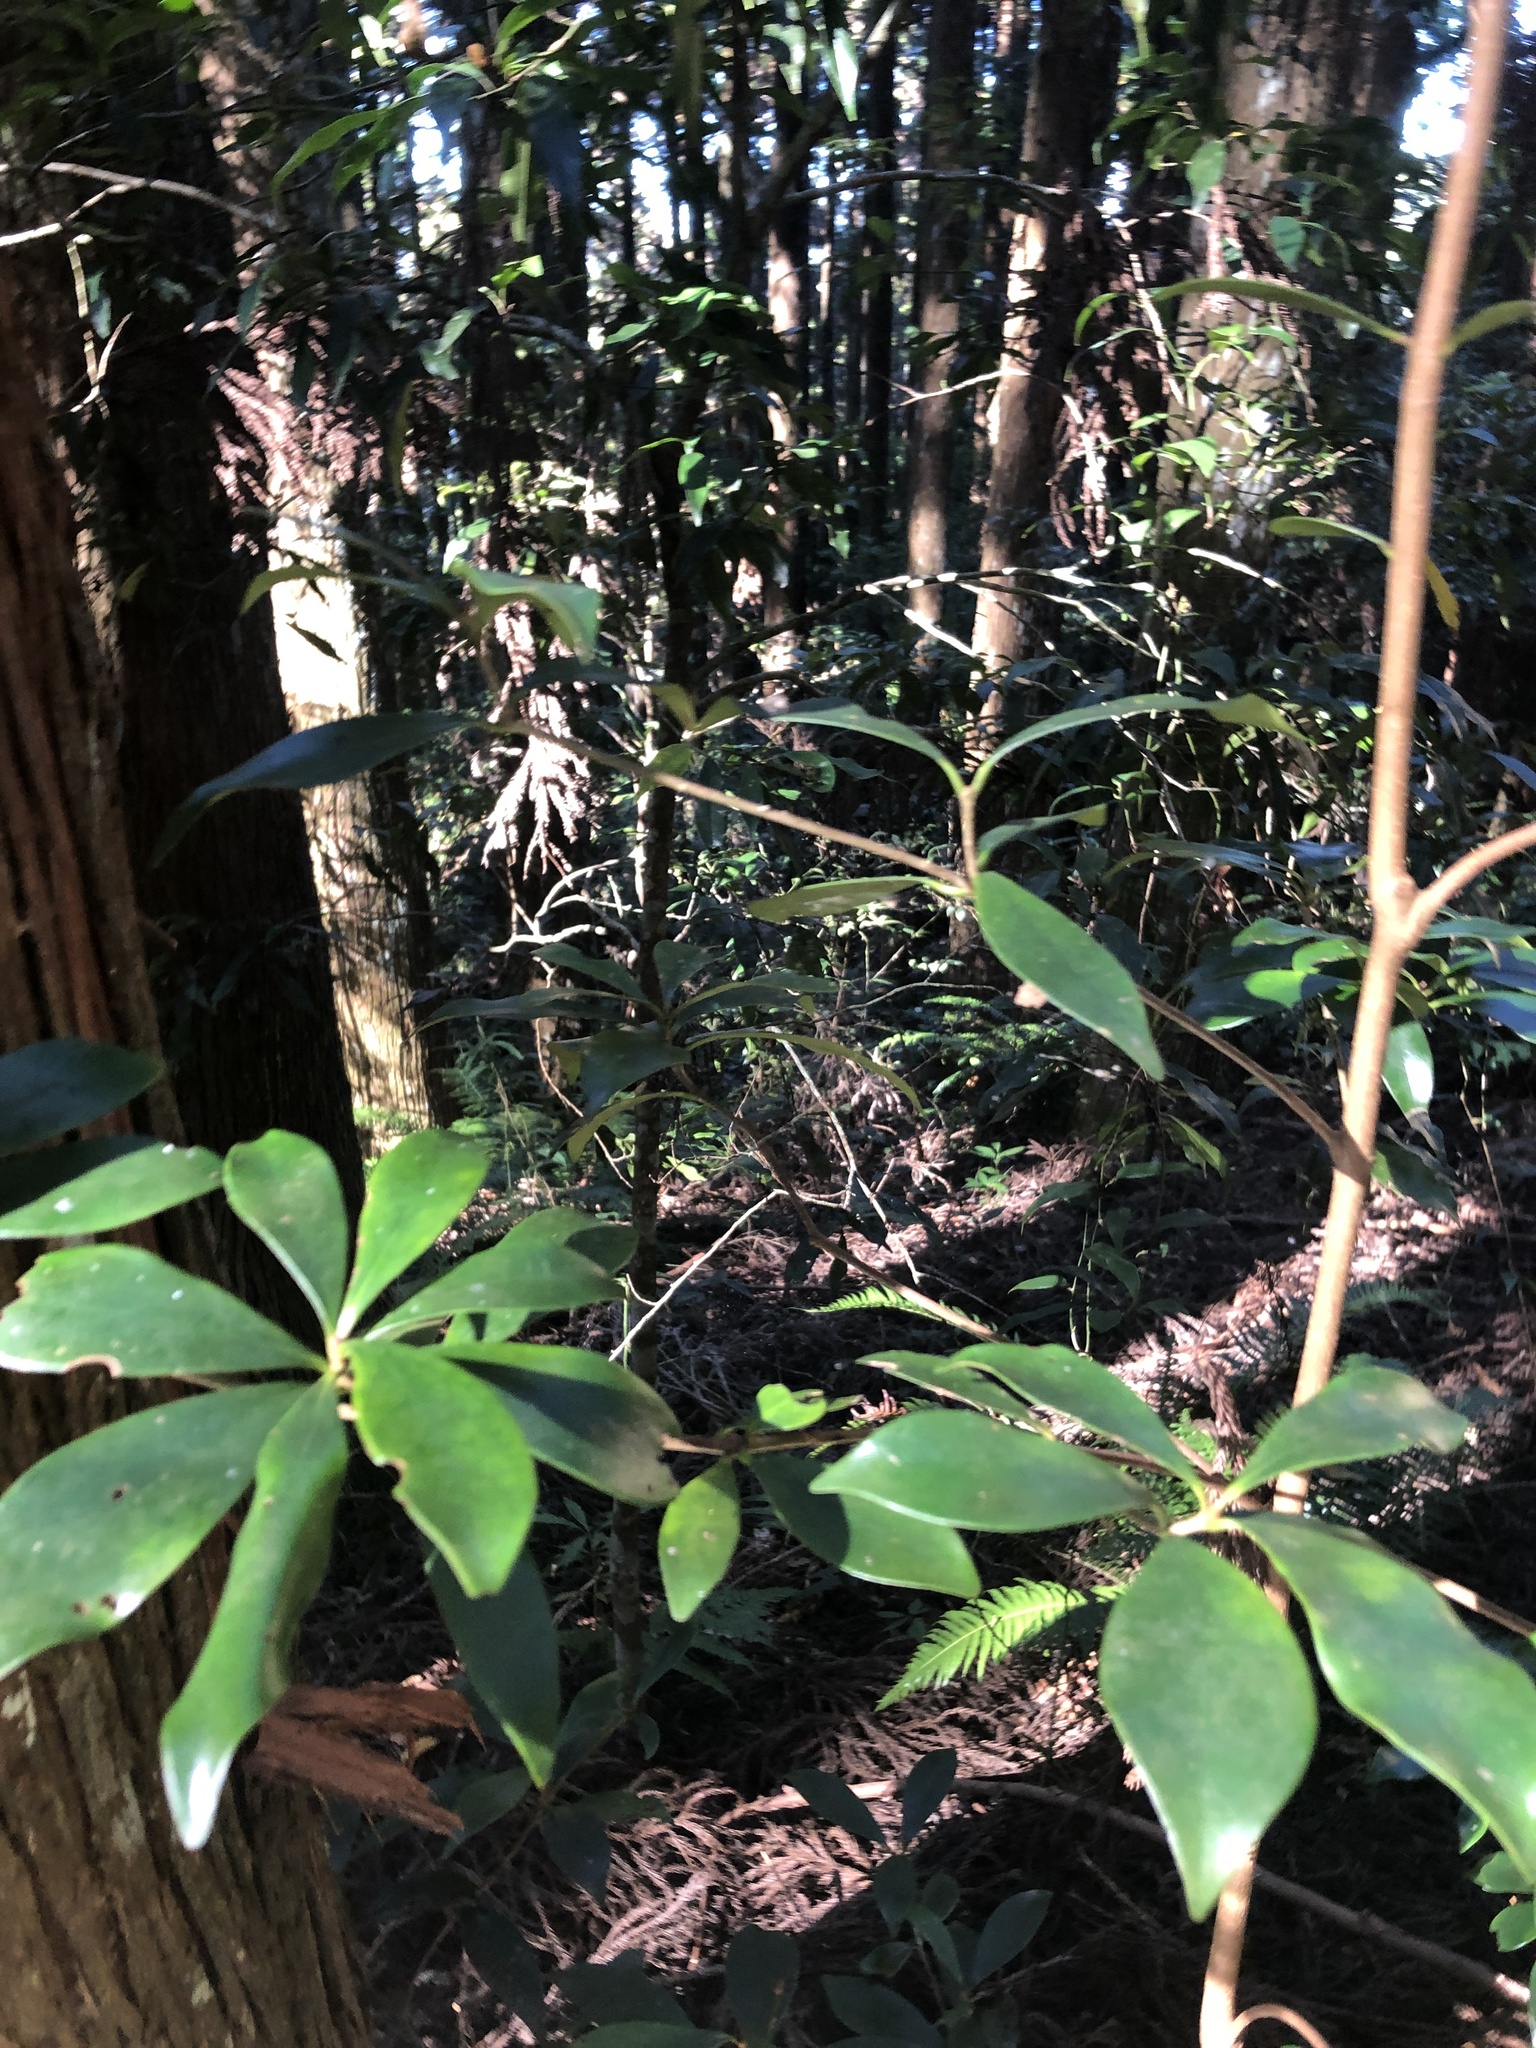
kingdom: Plantae
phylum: Tracheophyta
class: Magnoliopsida
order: Ericales
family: Pentaphylacaceae
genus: Ternstroemia
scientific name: Ternstroemia gymnanthera
